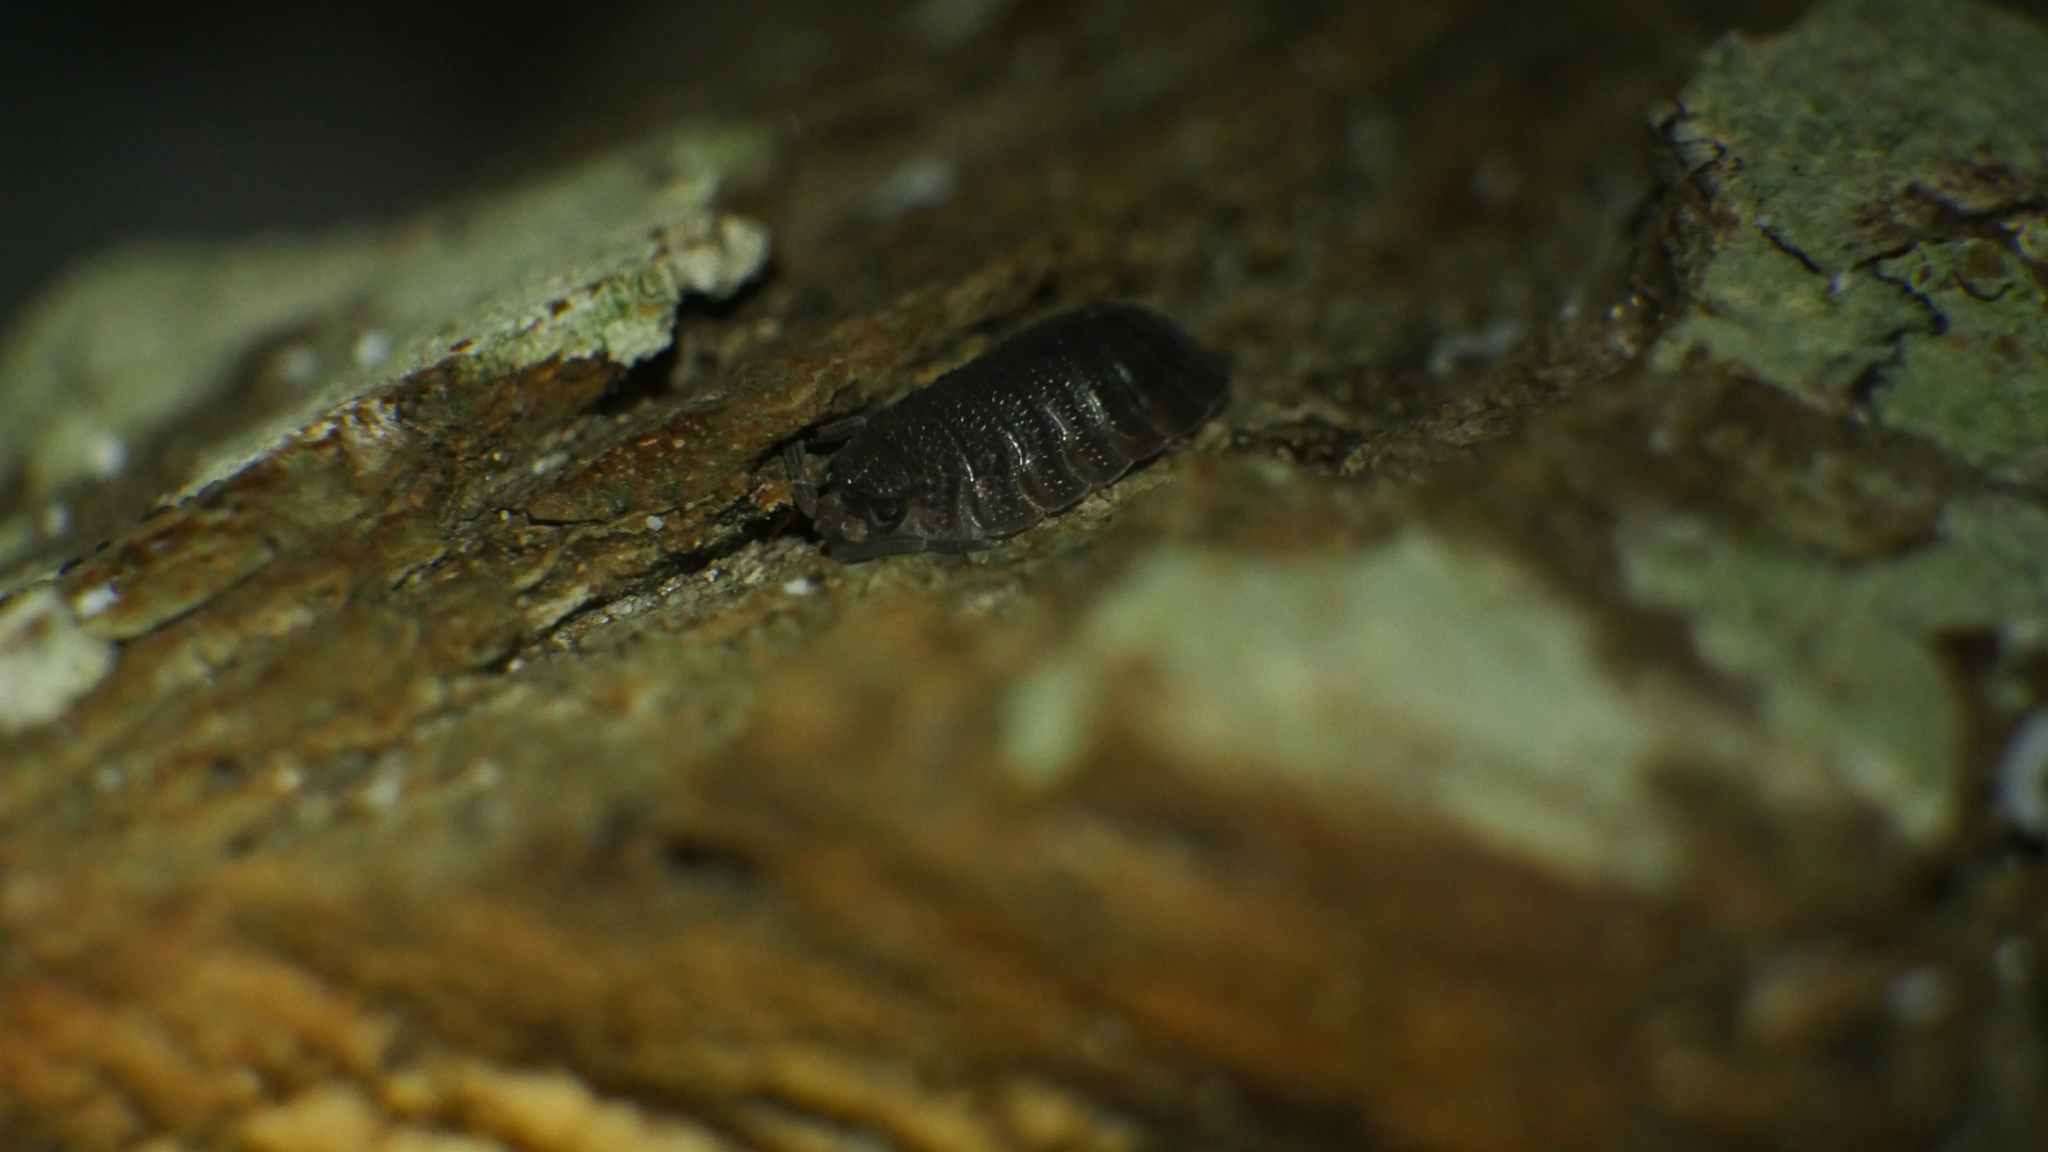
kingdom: Animalia
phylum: Arthropoda
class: Malacostraca
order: Isopoda
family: Porcellionidae
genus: Porcellio
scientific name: Porcellio scaber
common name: Common rough woodlouse
